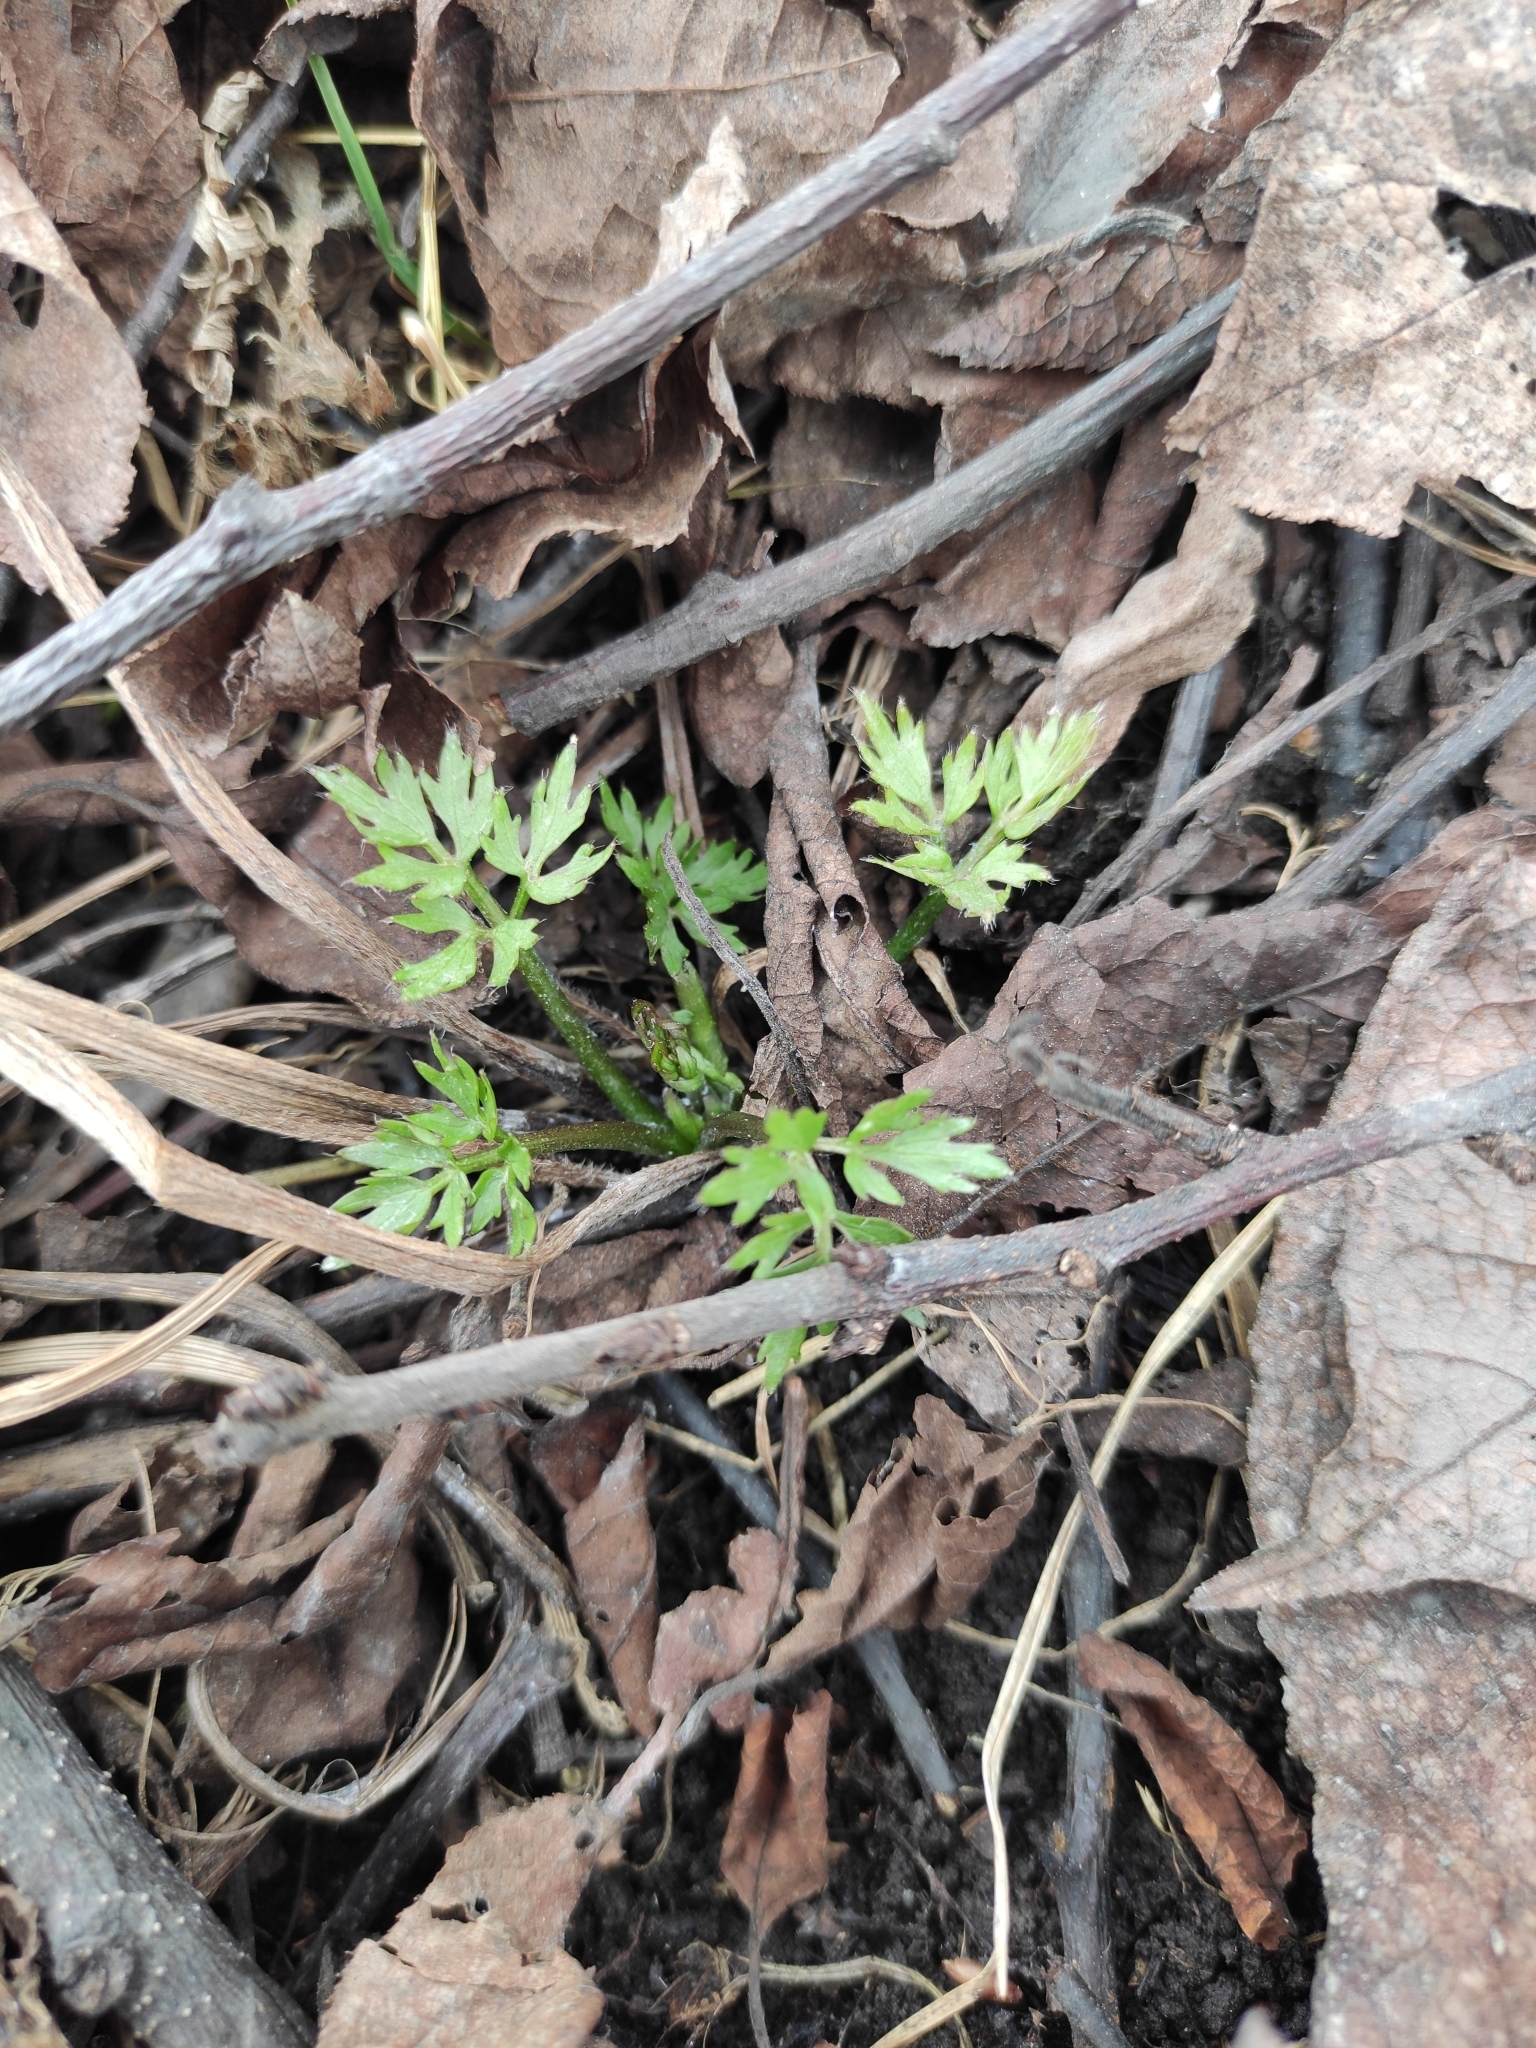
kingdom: Plantae
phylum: Tracheophyta
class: Magnoliopsida
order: Ranunculales
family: Ranunculaceae
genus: Ranunculus
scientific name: Ranunculus repens
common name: Creeping buttercup
